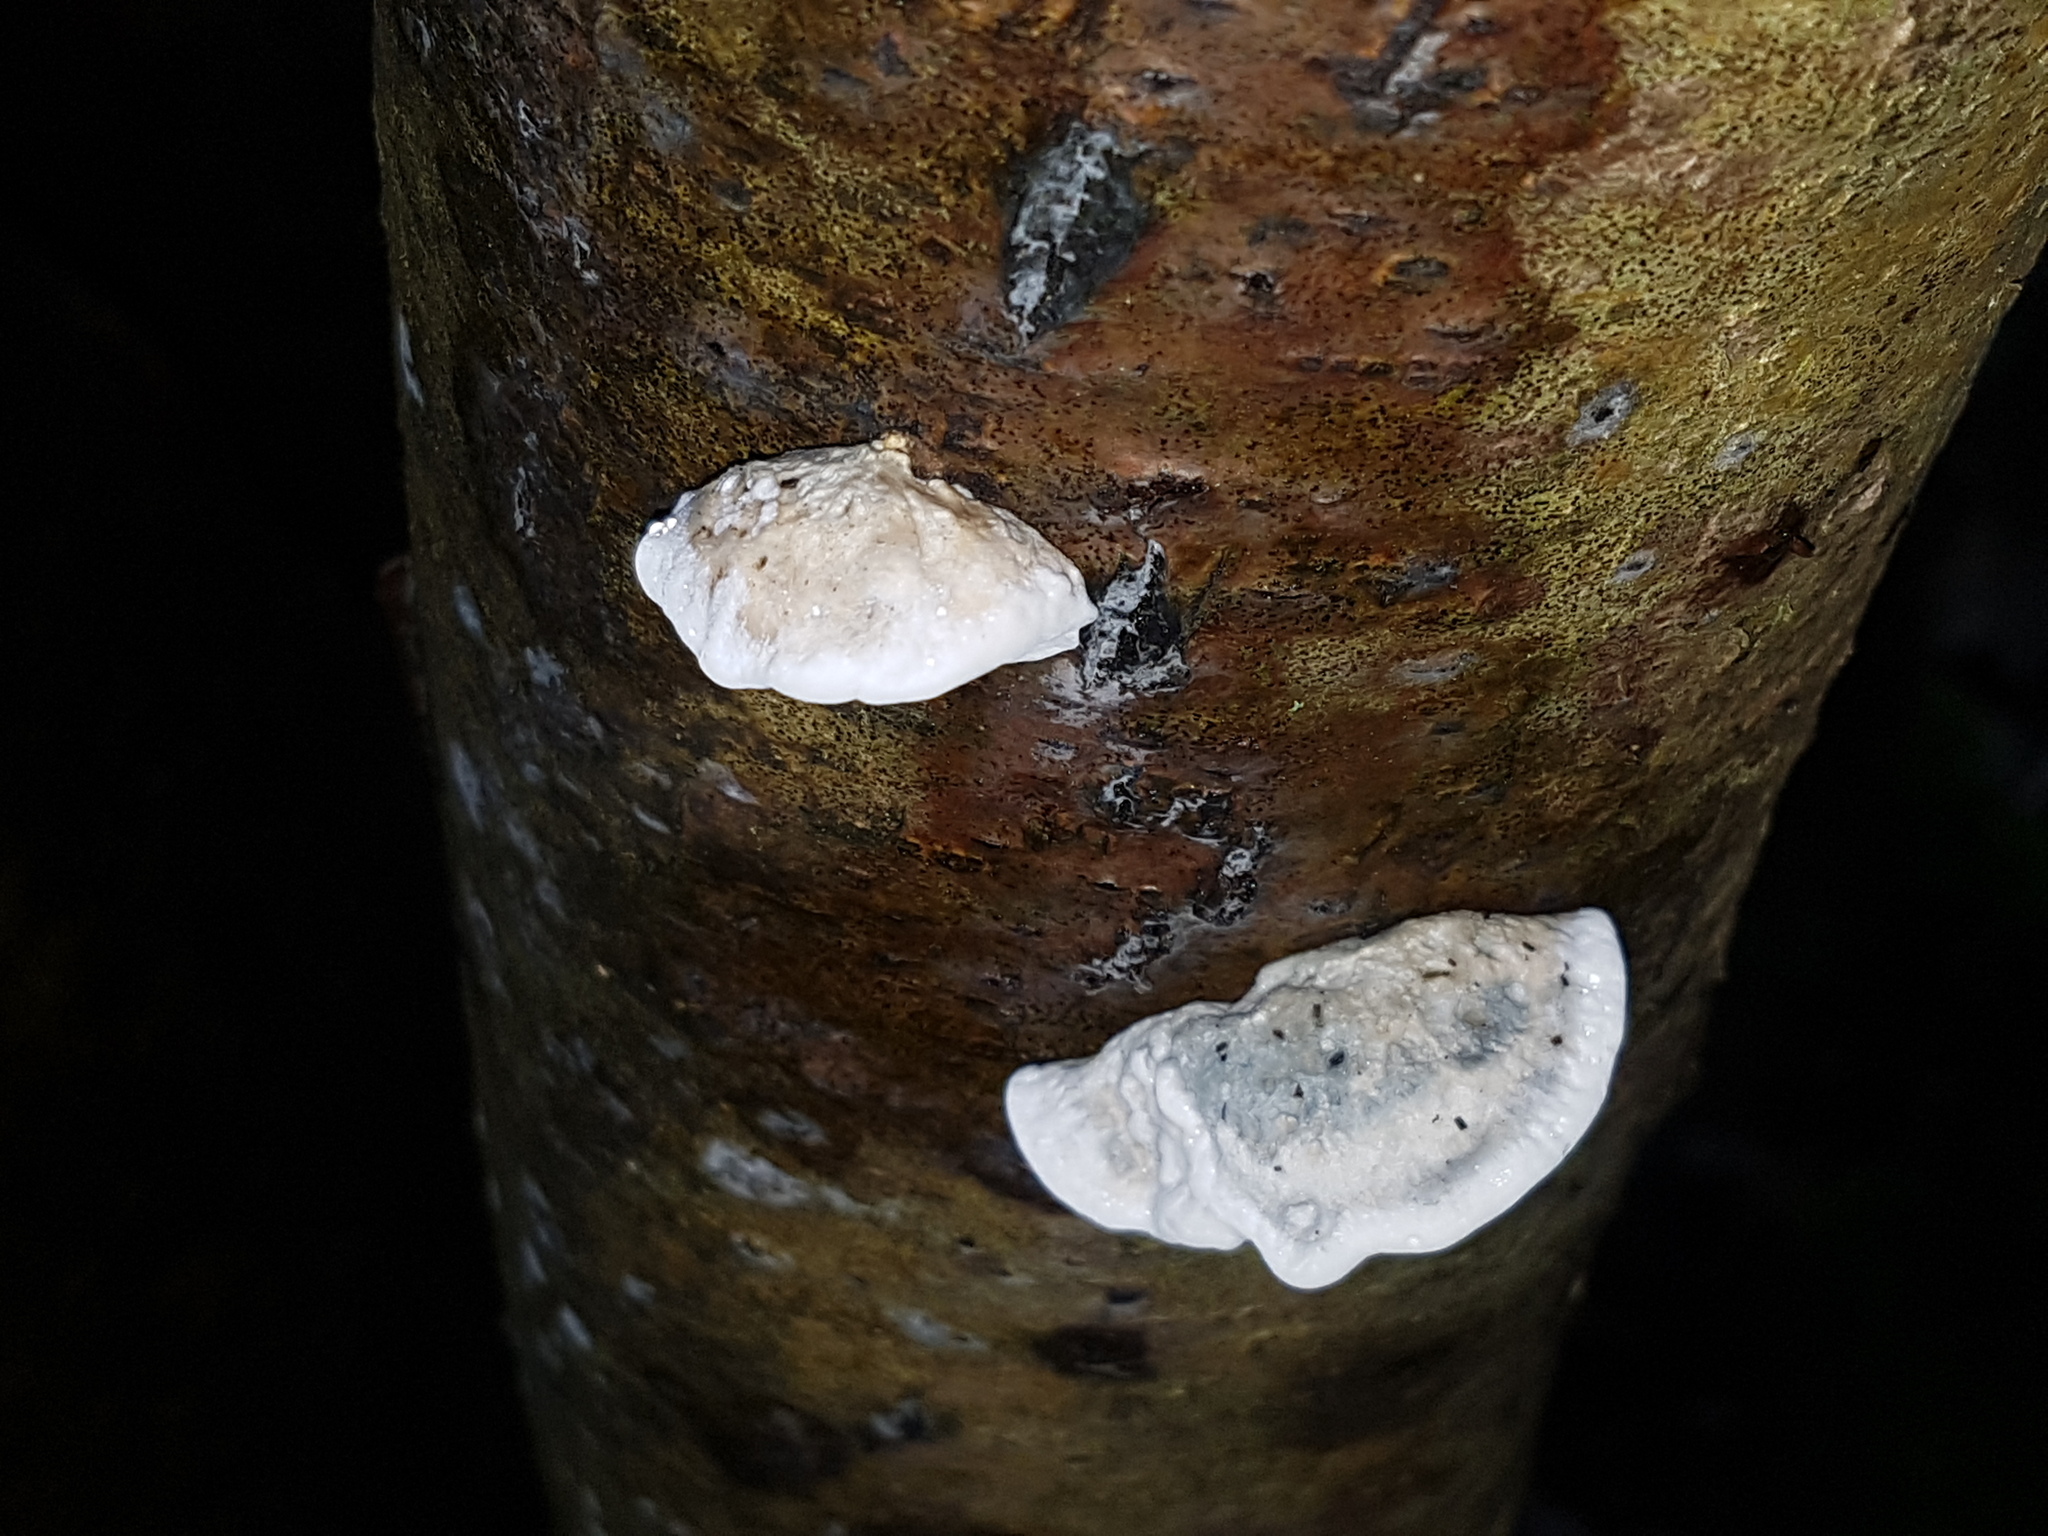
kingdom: Fungi
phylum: Basidiomycota
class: Agaricomycetes
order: Polyporales
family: Polyporaceae
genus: Cyanosporus
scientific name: Cyanosporus caesius
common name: Blue cheese polypore
